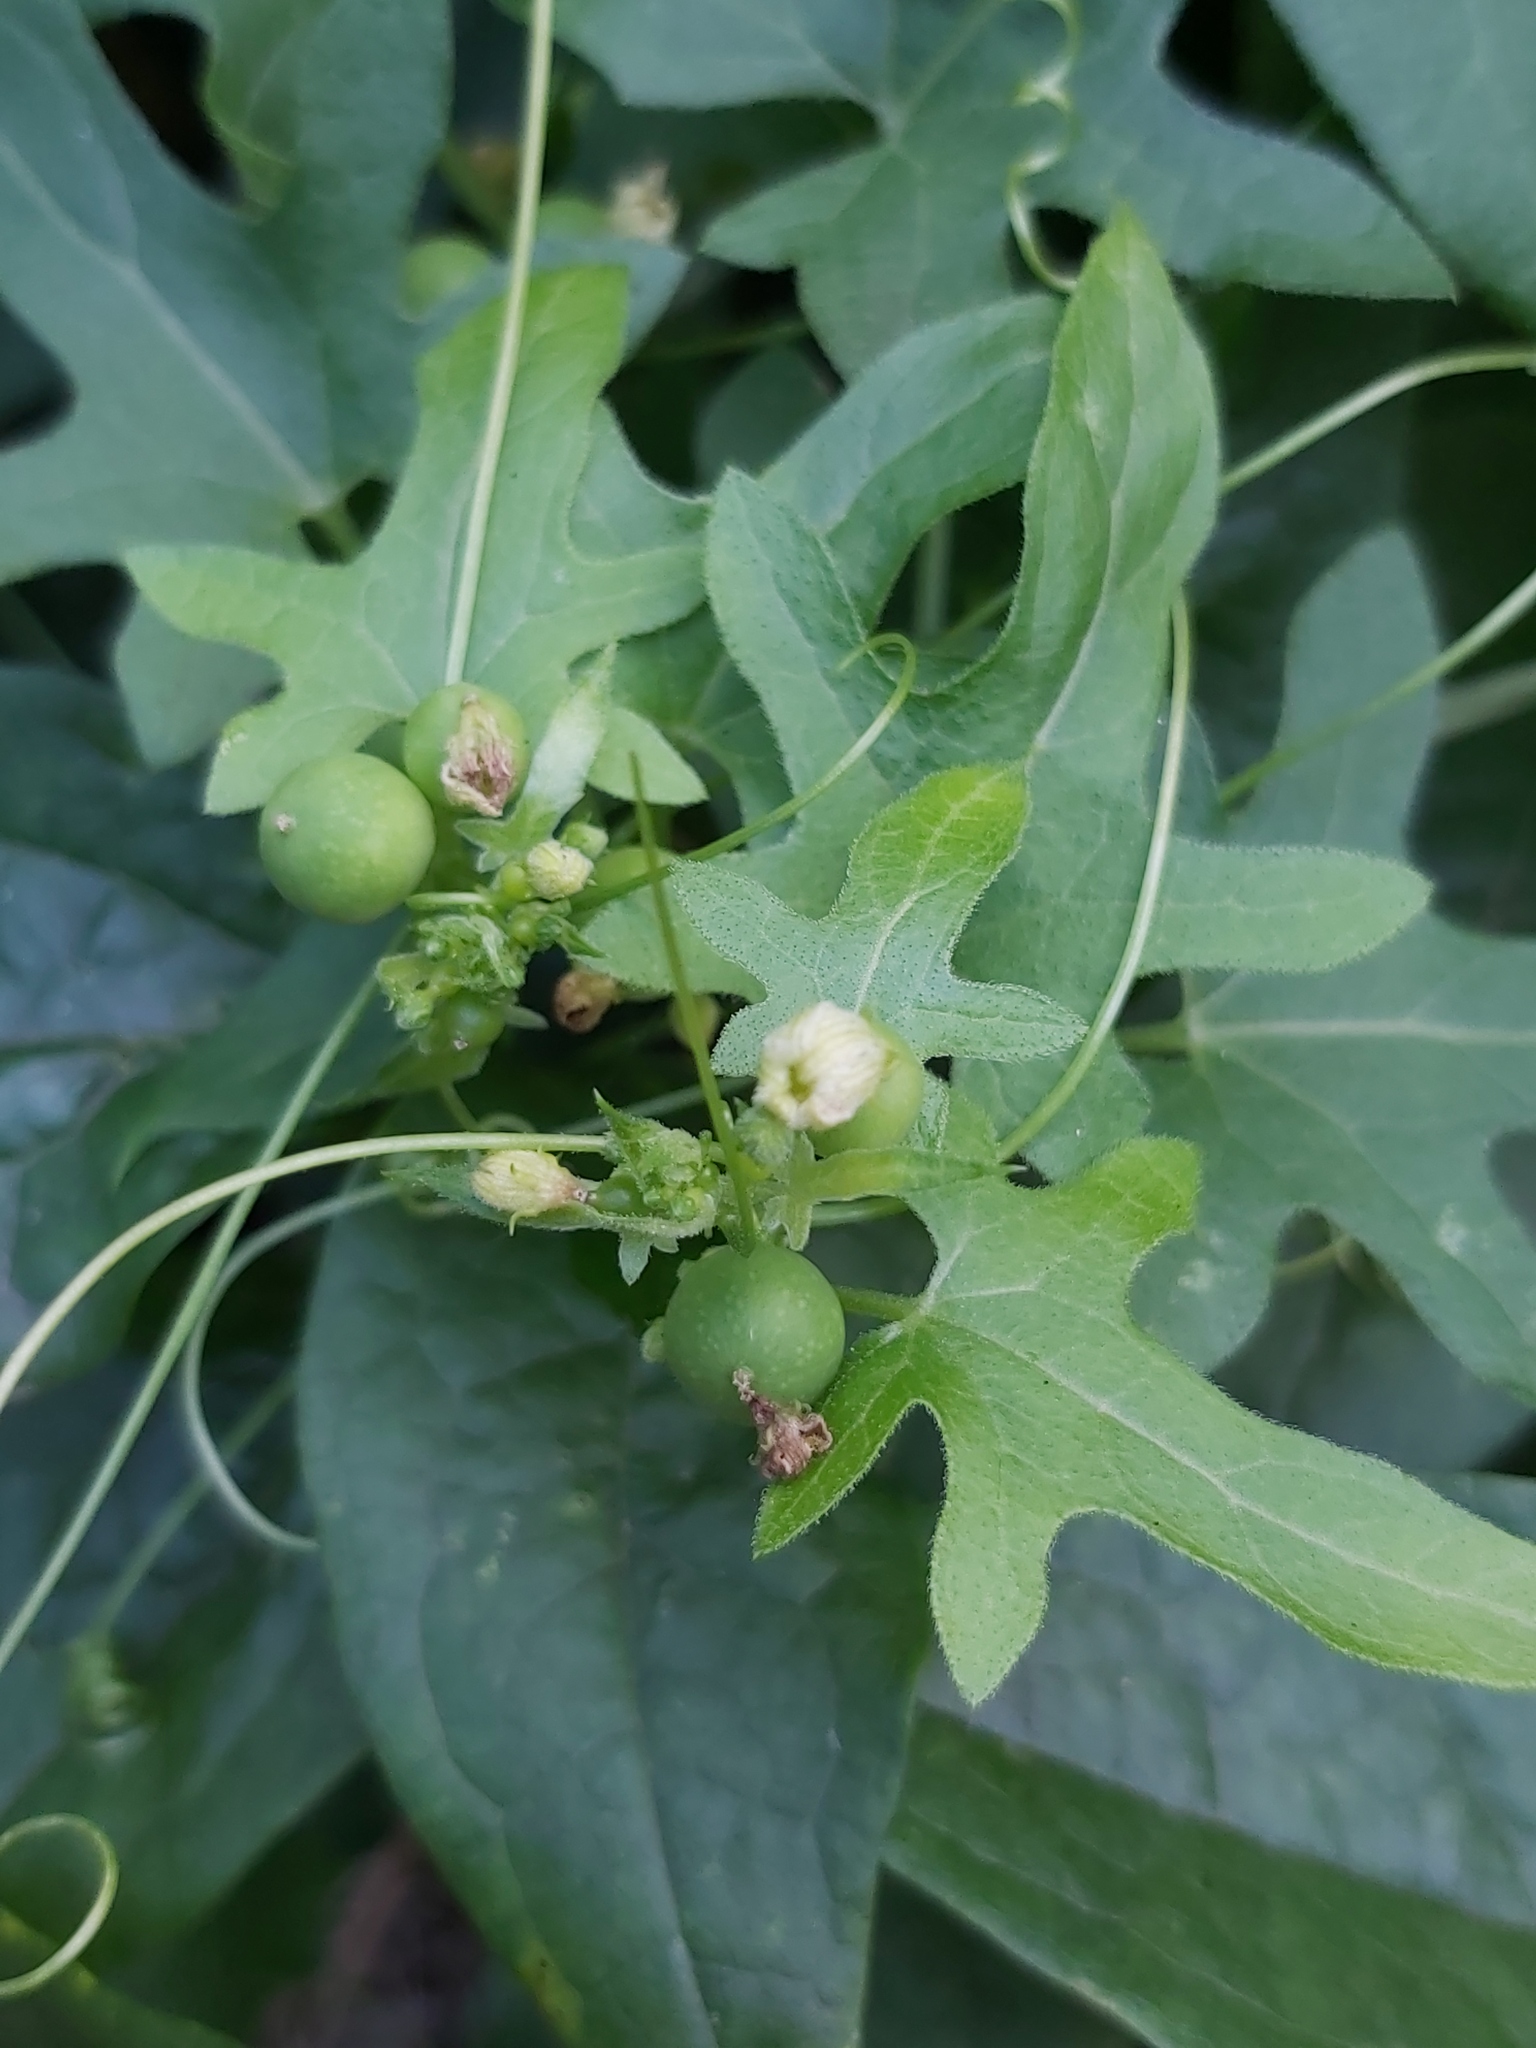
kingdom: Plantae
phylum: Tracheophyta
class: Magnoliopsida
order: Cucurbitales
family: Cucurbitaceae
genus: Bryonia
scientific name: Bryonia cretica
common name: Cretan bryony
